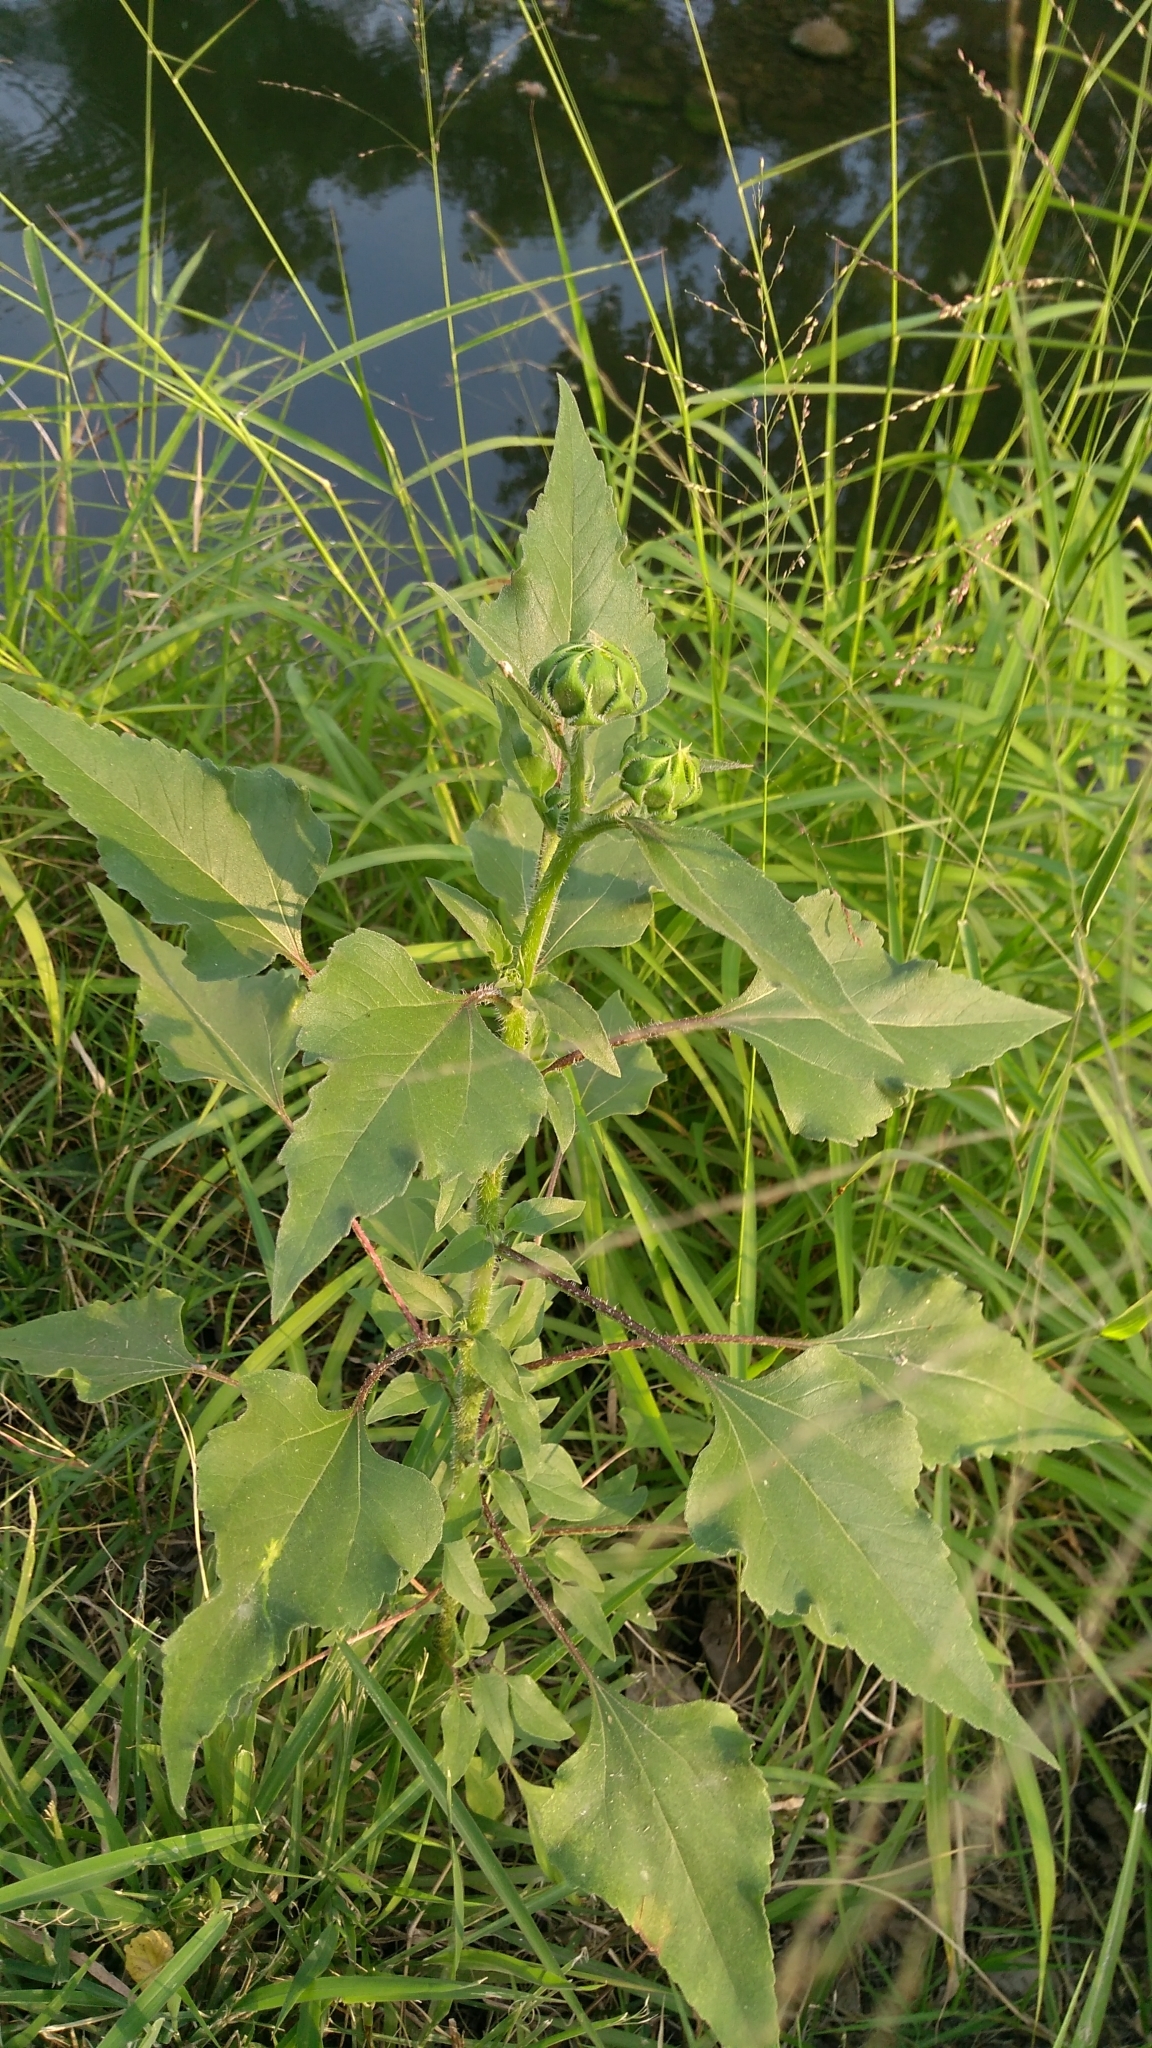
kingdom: Plantae
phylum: Tracheophyta
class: Magnoliopsida
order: Asterales
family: Asteraceae
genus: Helianthus
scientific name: Helianthus annuus
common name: Sunflower
